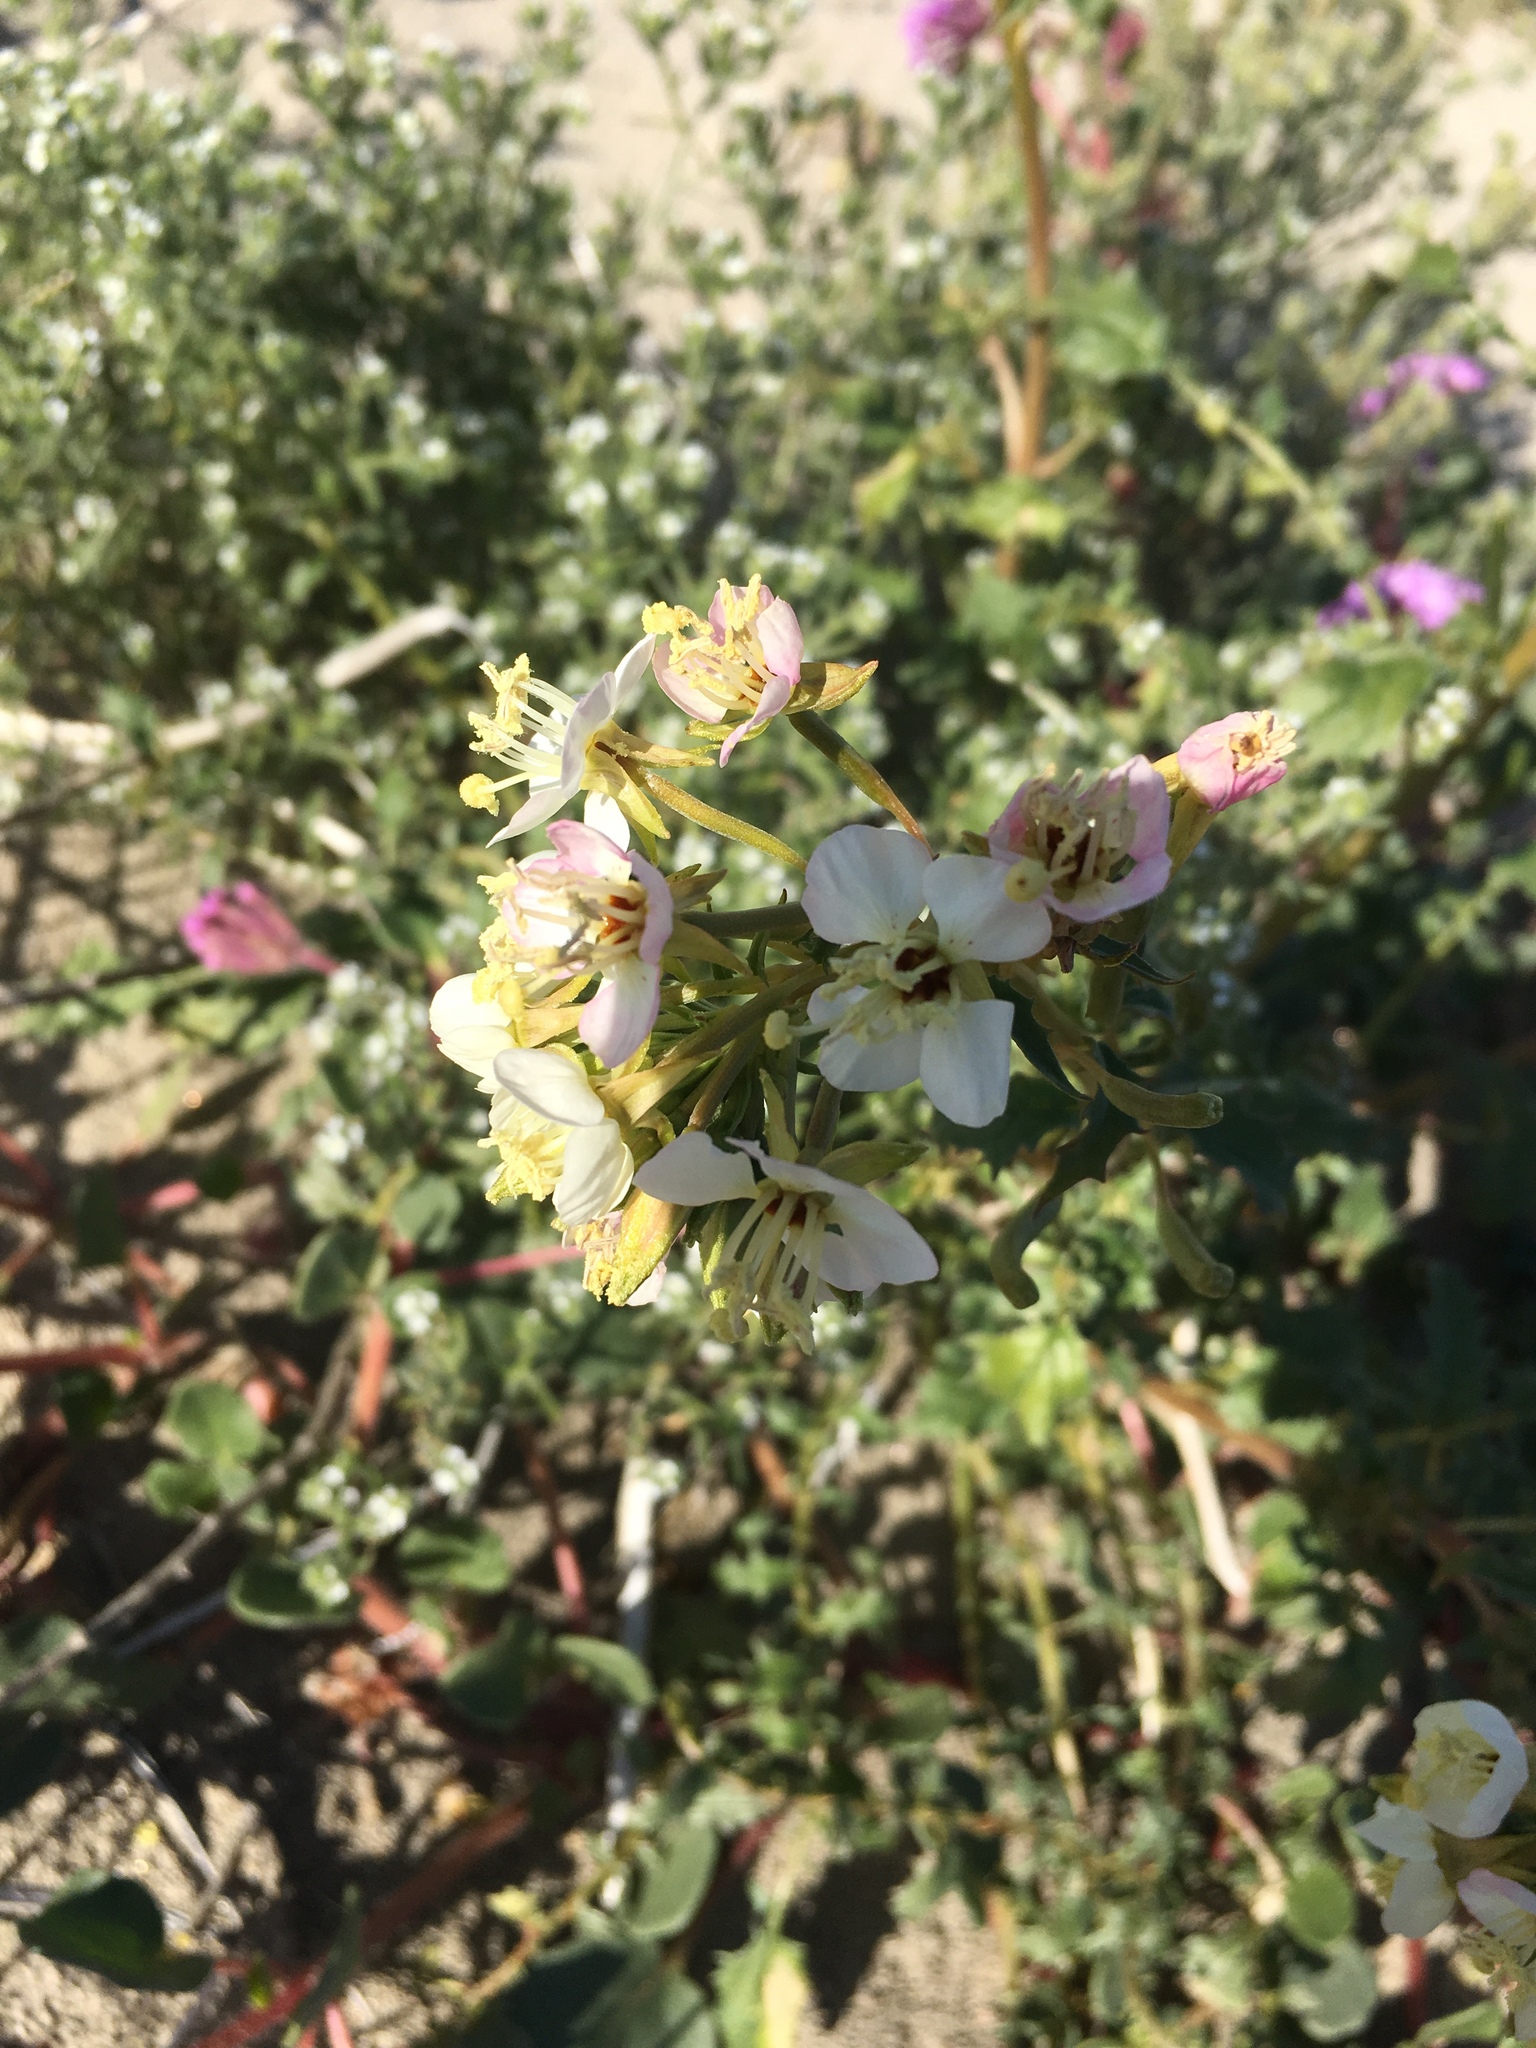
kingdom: Plantae
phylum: Tracheophyta
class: Magnoliopsida
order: Myrtales
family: Onagraceae
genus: Chylismia
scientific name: Chylismia claviformis
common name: Browneyes
